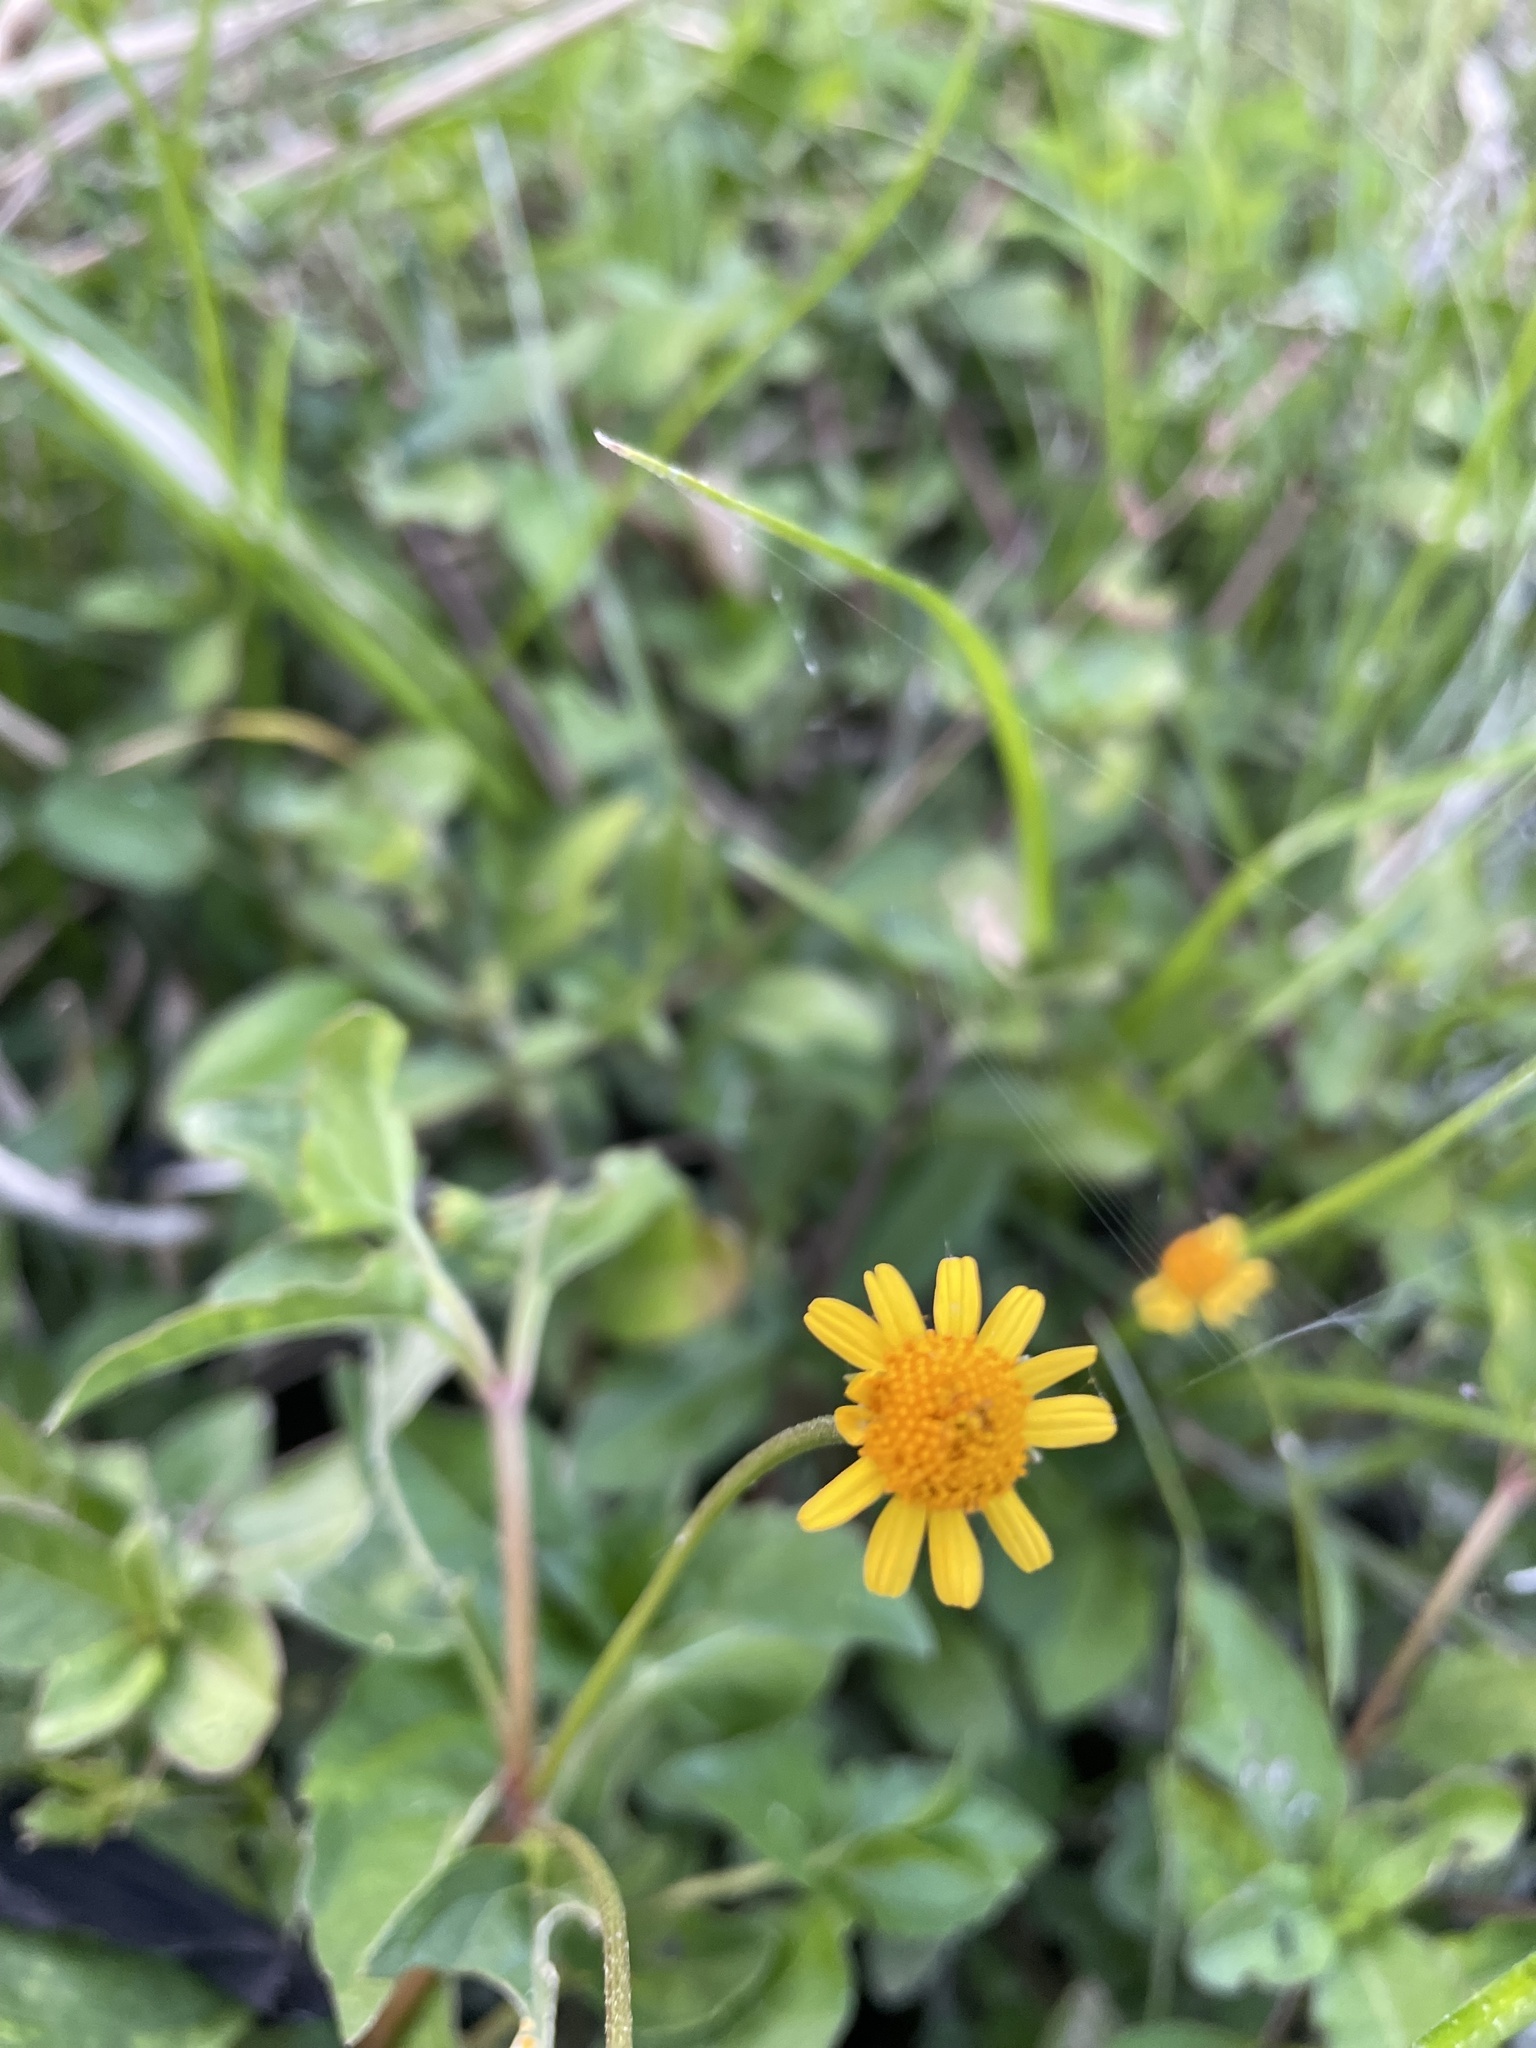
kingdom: Plantae
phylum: Tracheophyta
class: Magnoliopsida
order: Asterales
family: Asteraceae
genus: Acmella
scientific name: Acmella repens
